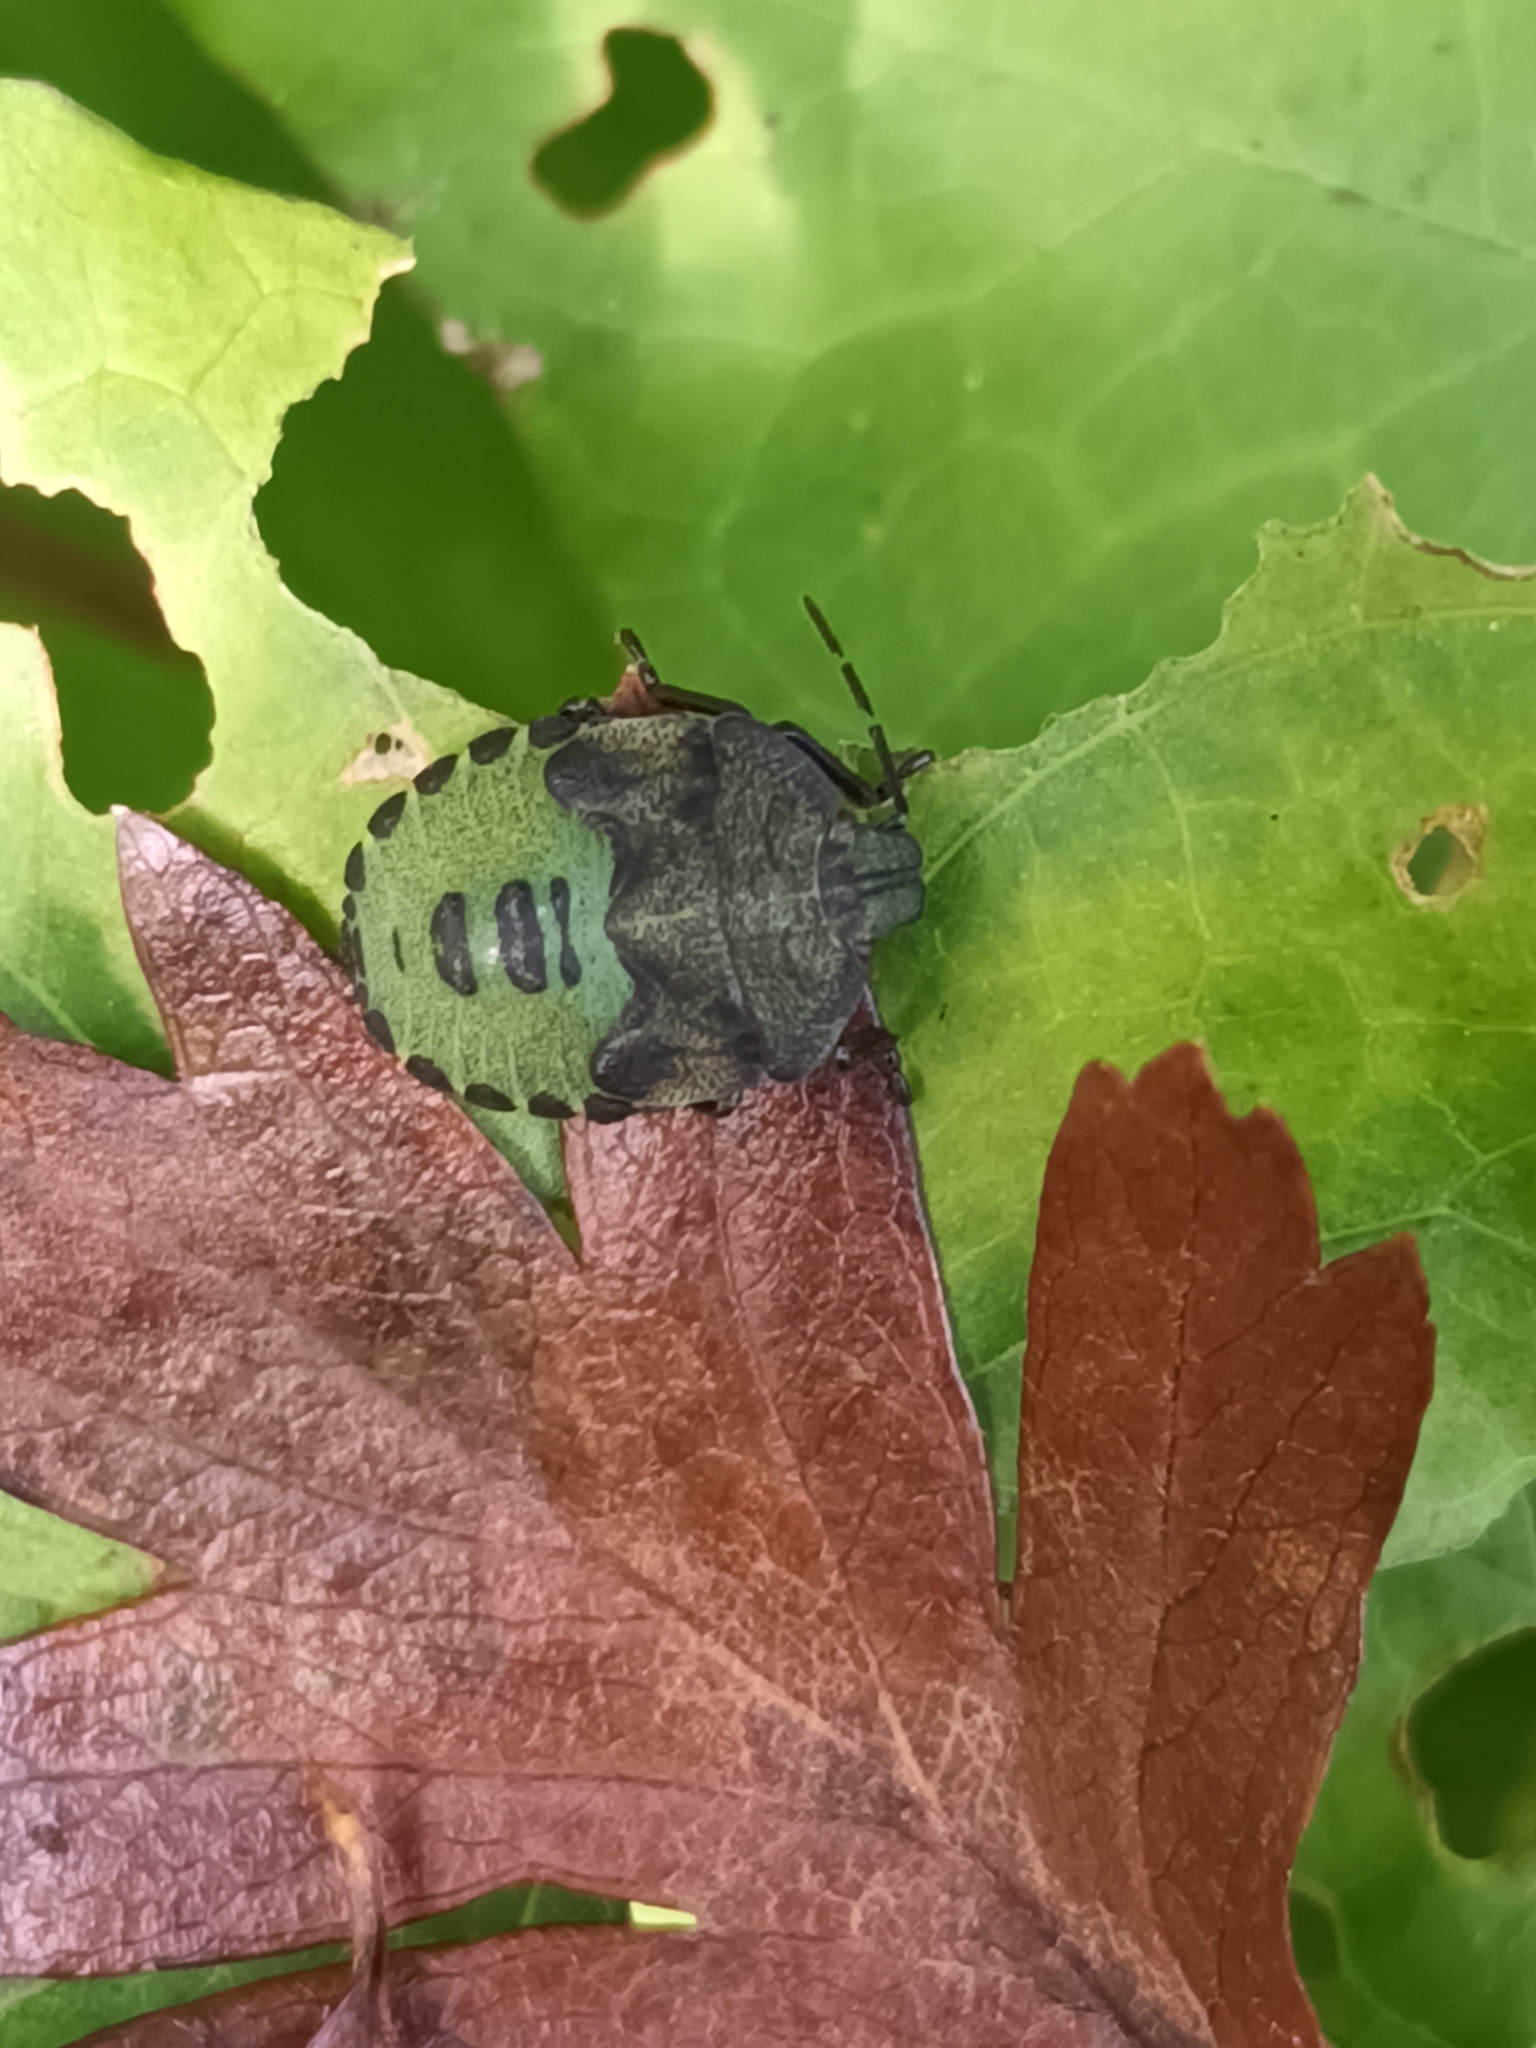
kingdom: Animalia
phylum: Arthropoda
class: Insecta
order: Hemiptera
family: Pentatomidae
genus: Palomena
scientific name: Palomena prasina
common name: Green shieldbug
